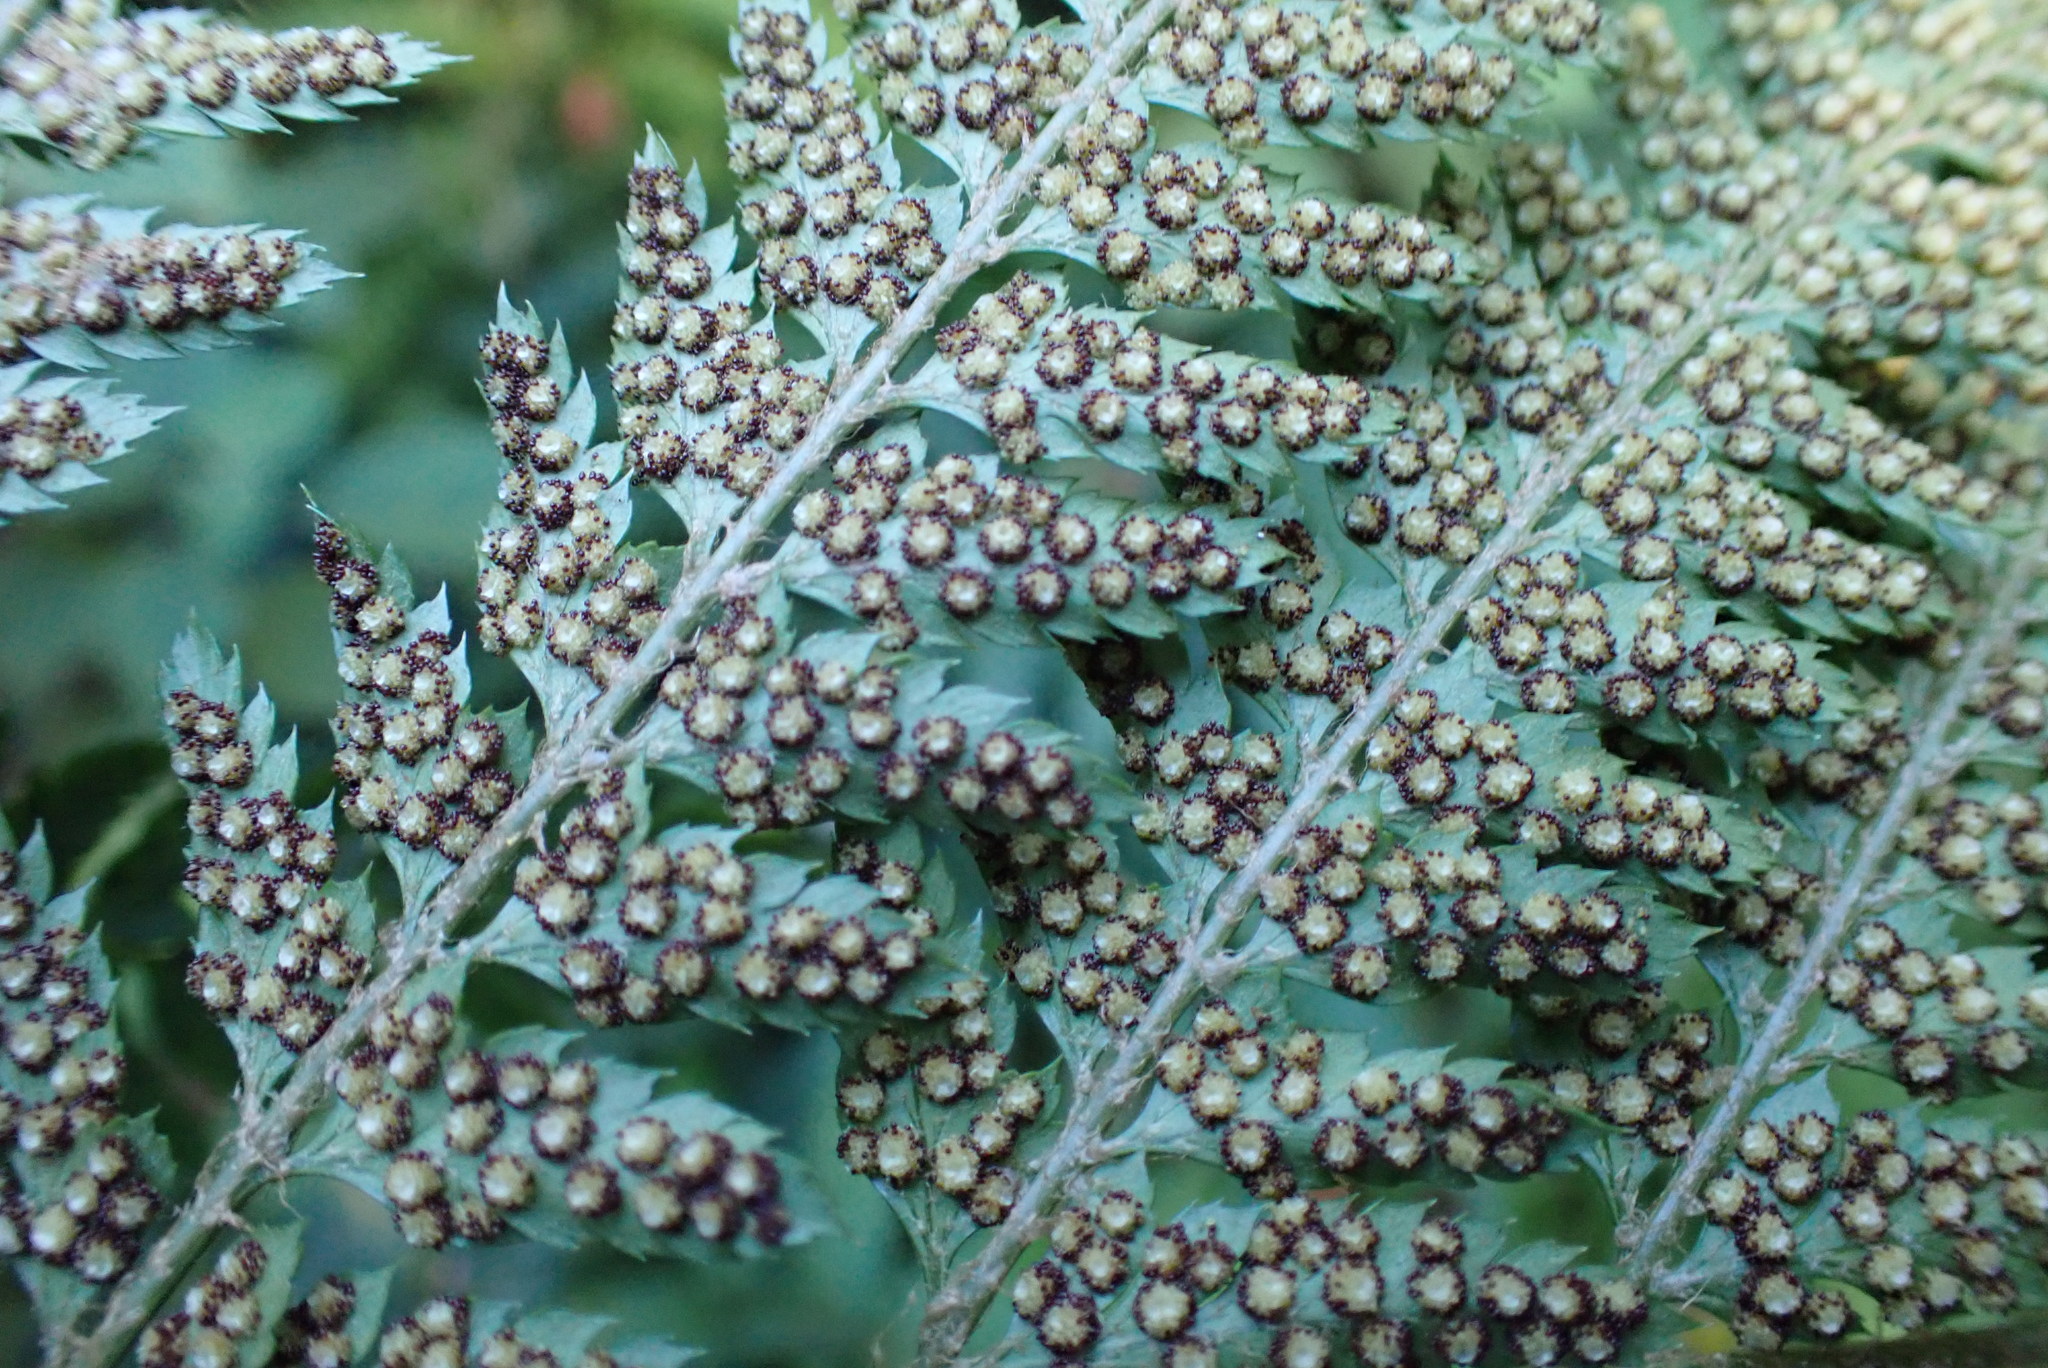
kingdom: Plantae
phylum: Tracheophyta
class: Polypodiopsida
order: Polypodiales
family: Dryopteridaceae
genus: Polystichum
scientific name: Polystichum pungens
